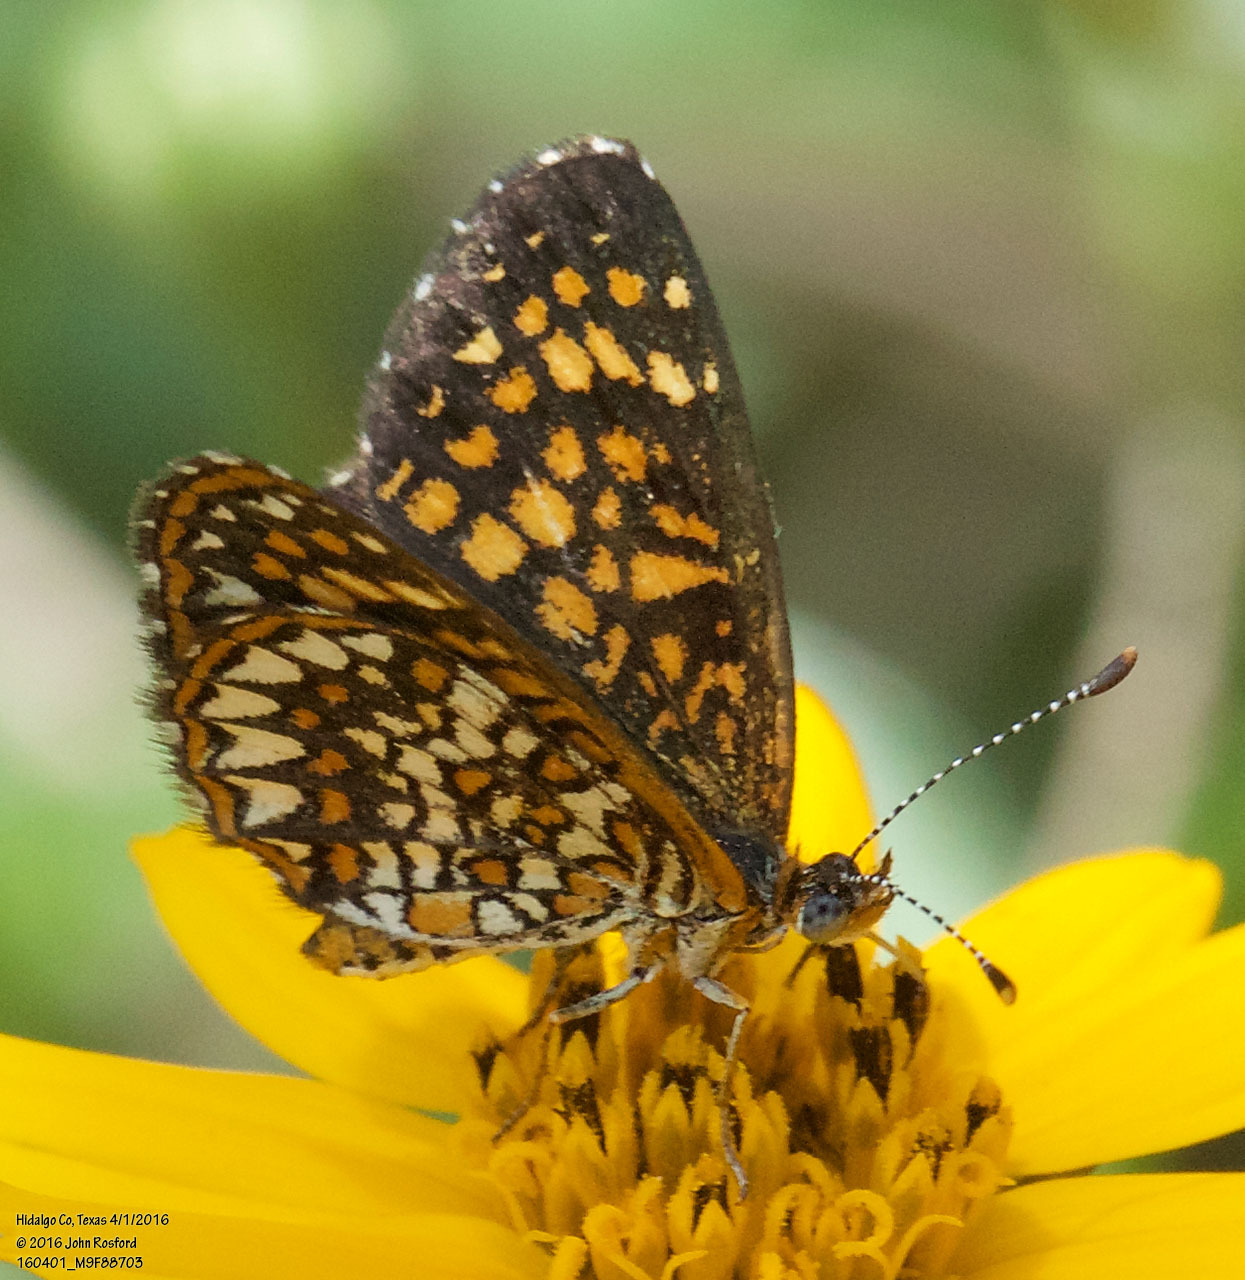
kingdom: Animalia
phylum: Arthropoda
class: Insecta
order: Lepidoptera
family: Nymphalidae
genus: Texola
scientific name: Texola elada
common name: Elada checkerspot
